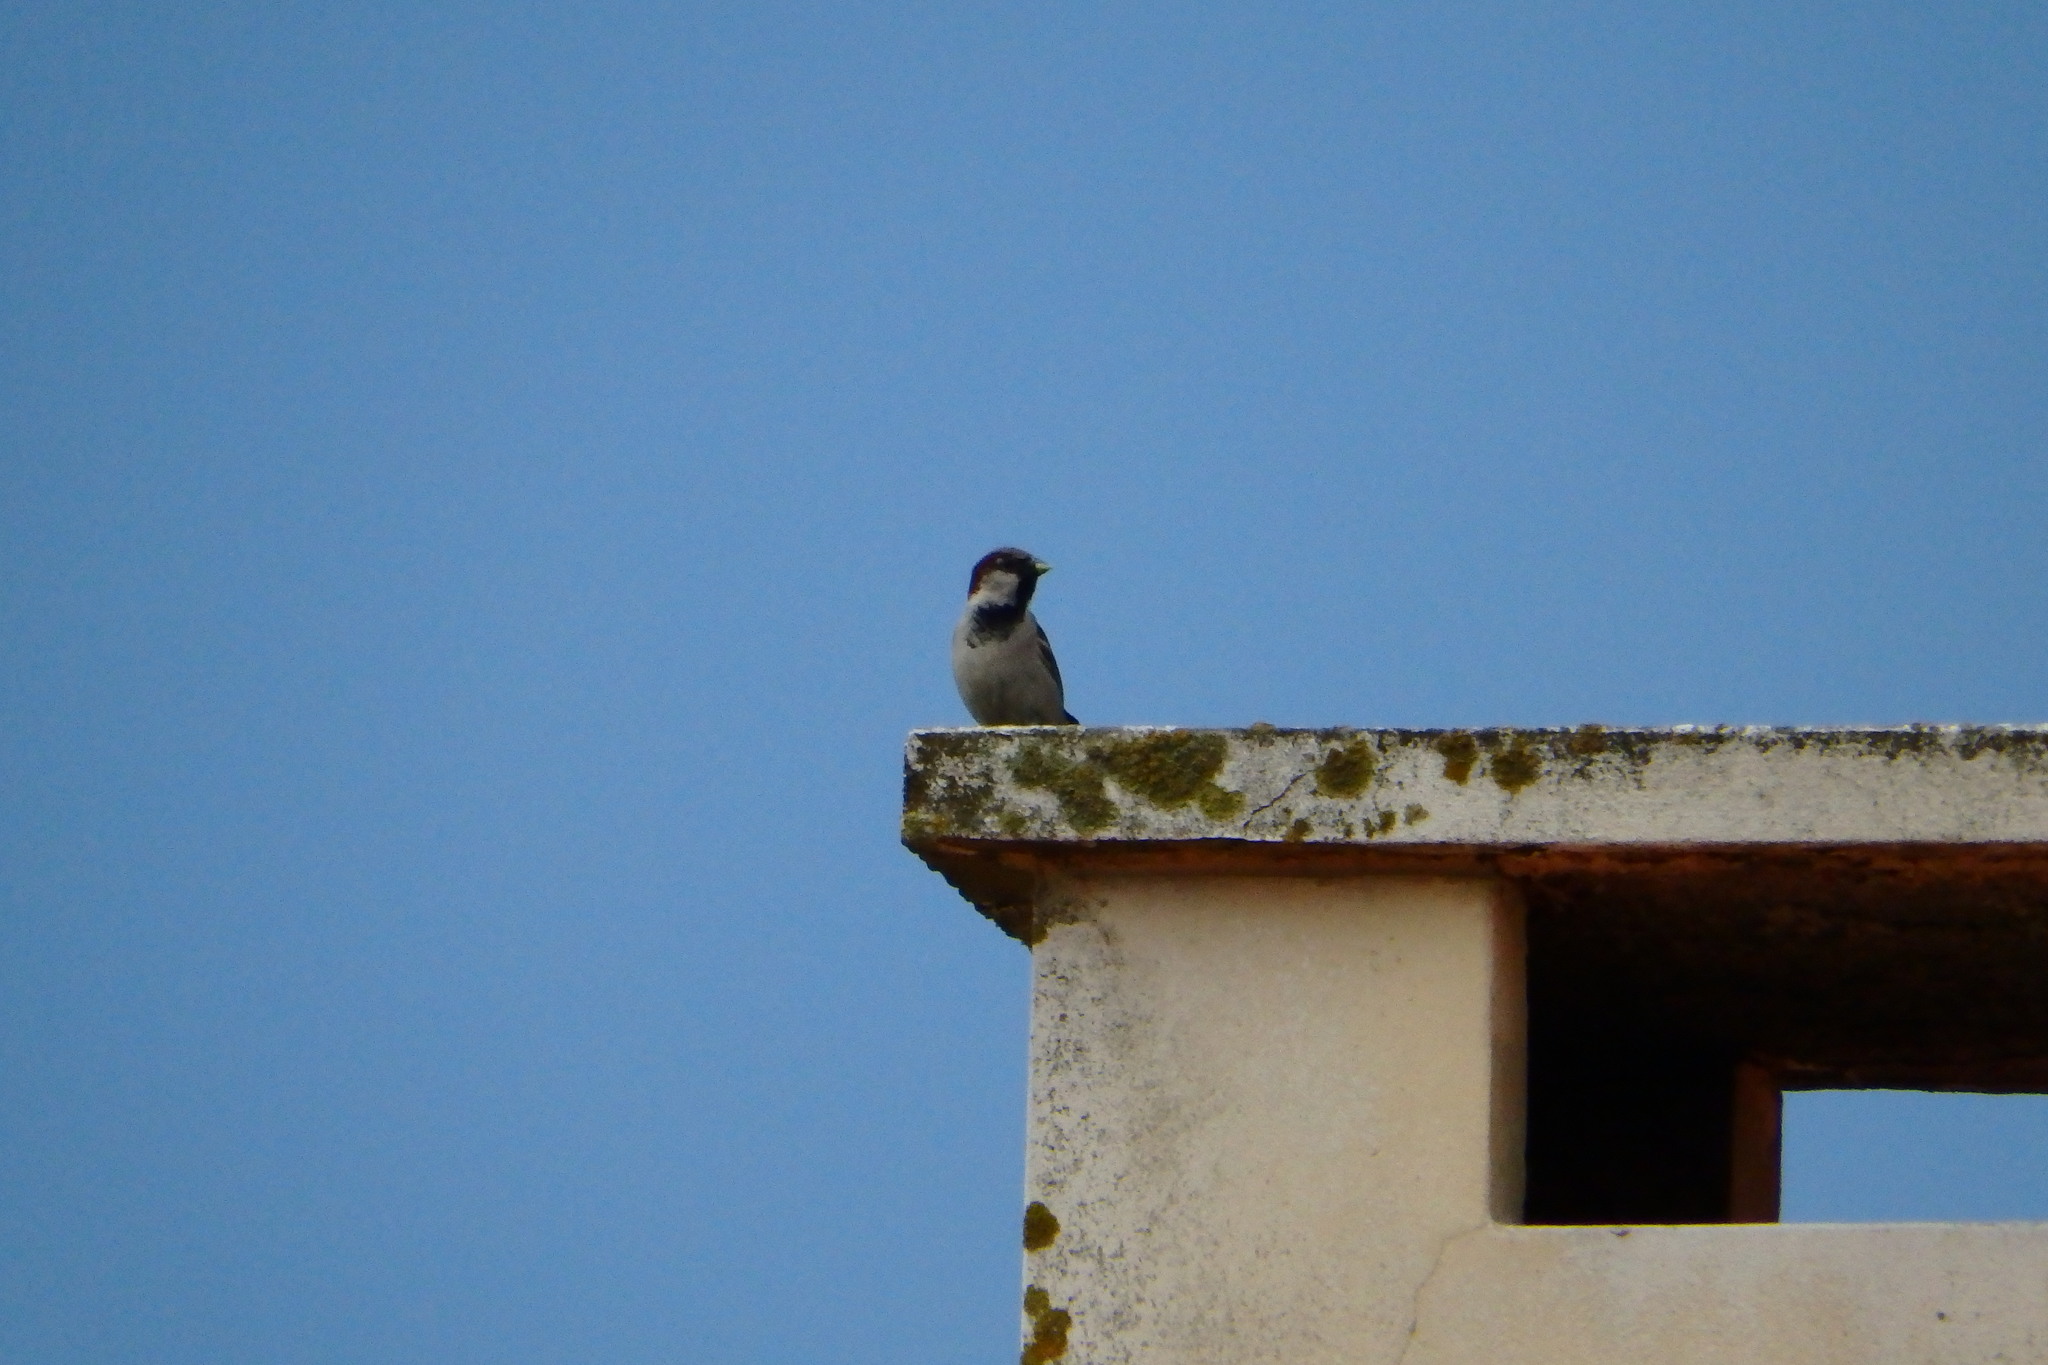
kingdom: Animalia
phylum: Chordata
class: Aves
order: Passeriformes
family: Passeridae
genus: Passer
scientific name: Passer domesticus
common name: House sparrow
